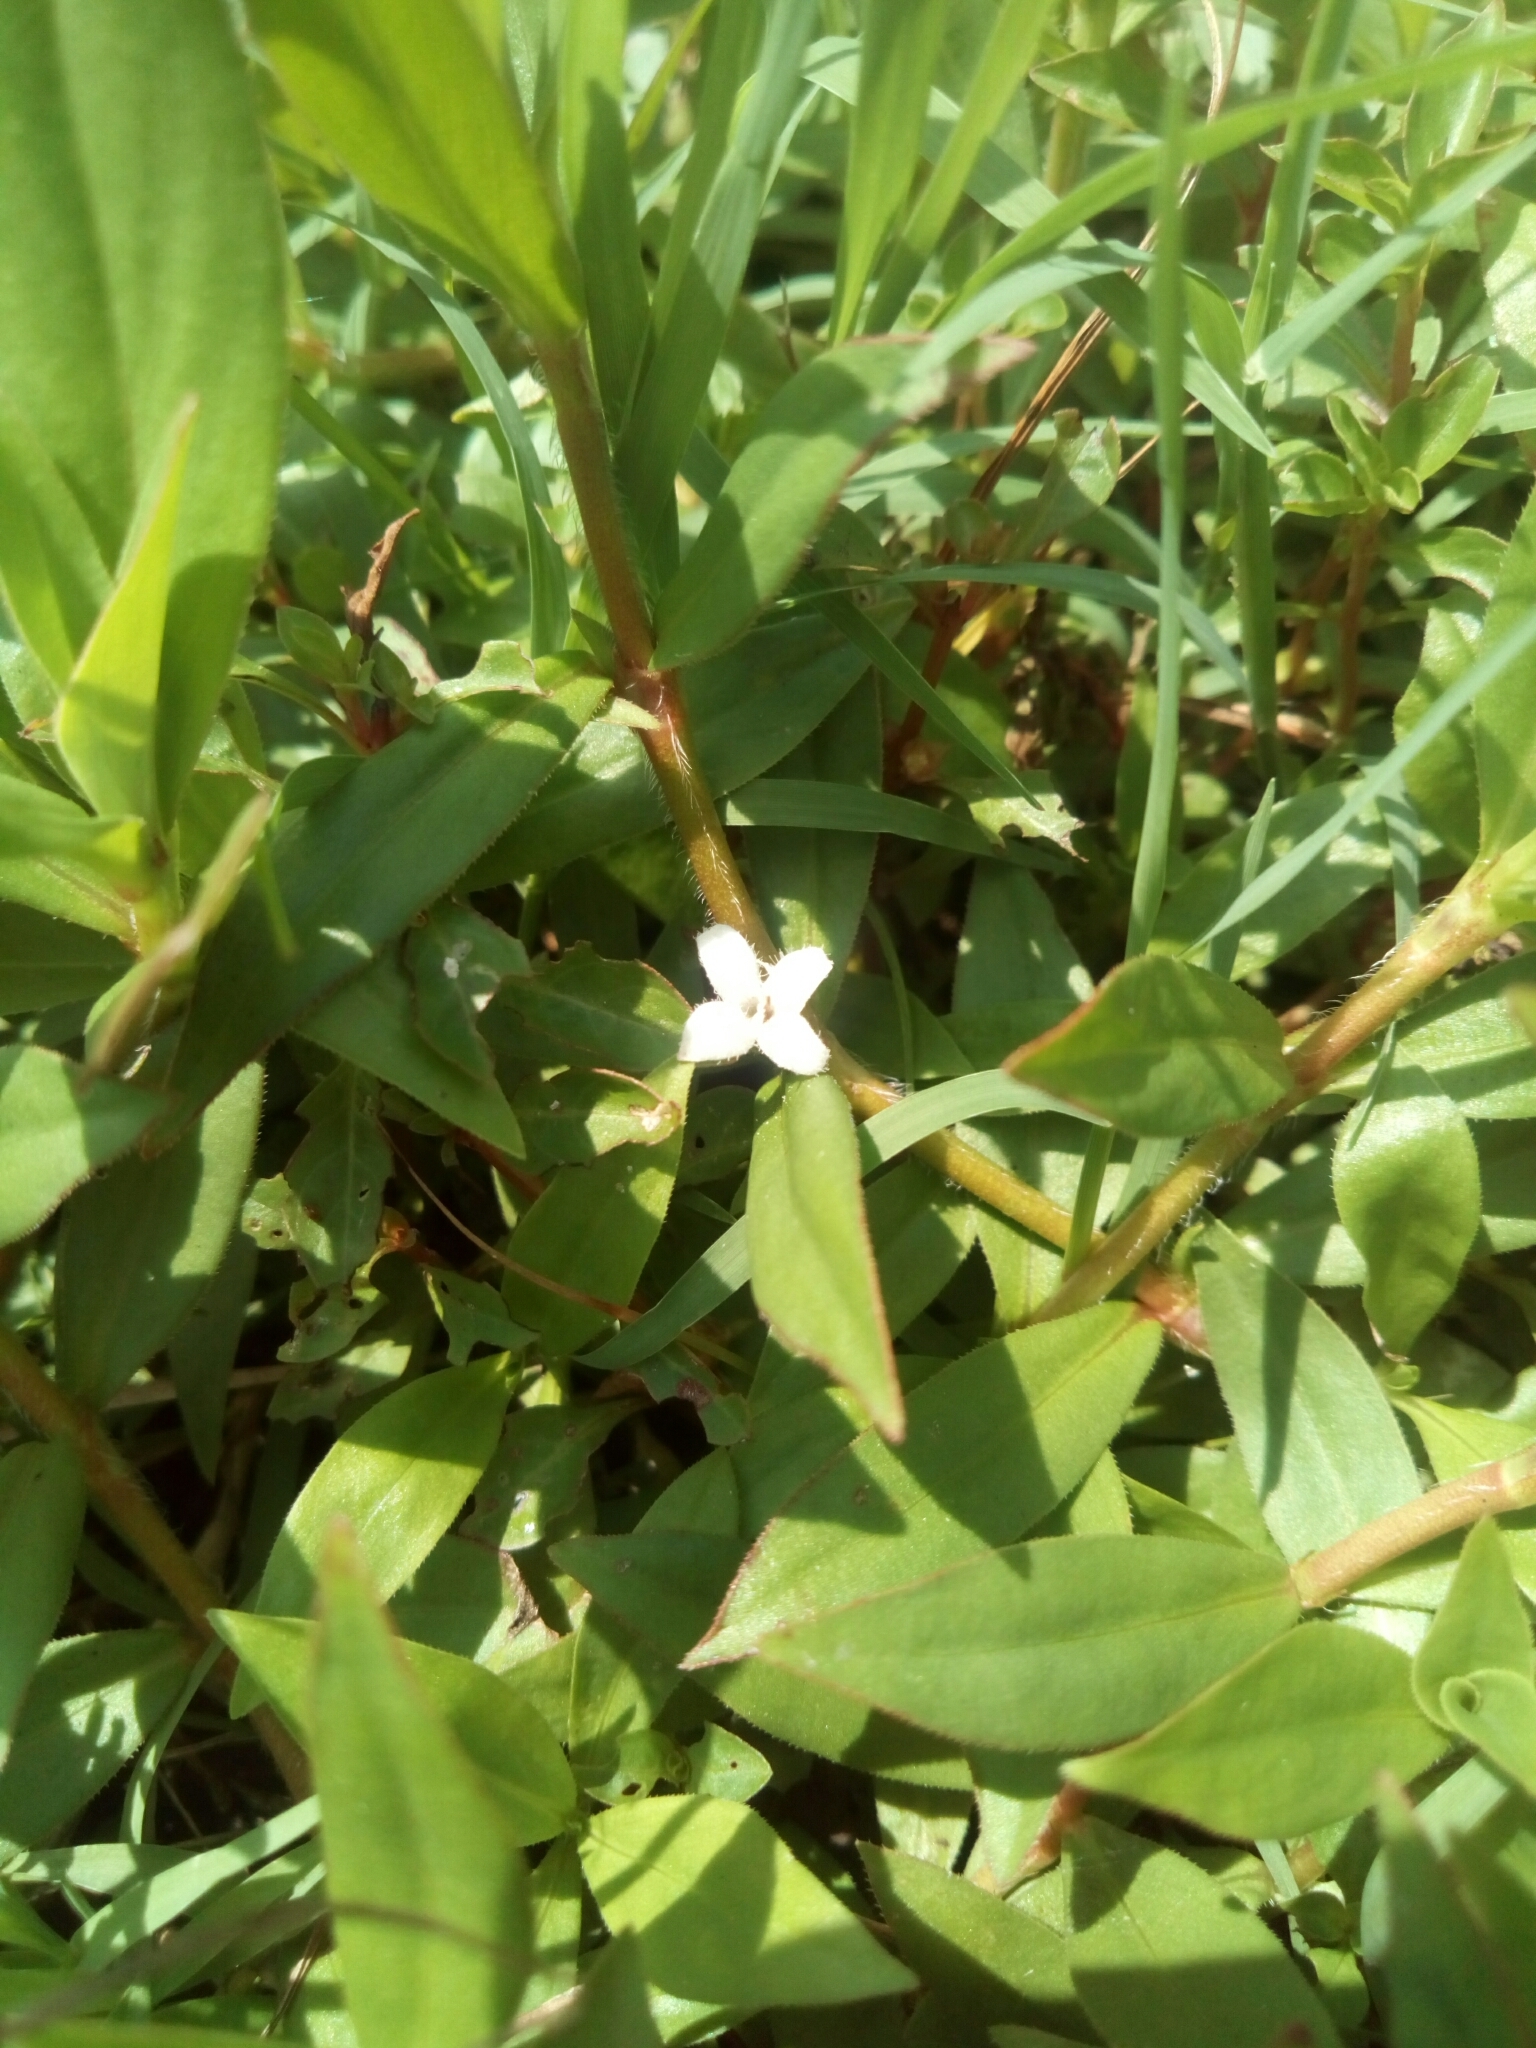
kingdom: Plantae
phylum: Tracheophyta
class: Magnoliopsida
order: Gentianales
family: Rubiaceae
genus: Diodia
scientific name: Diodia virginiana
